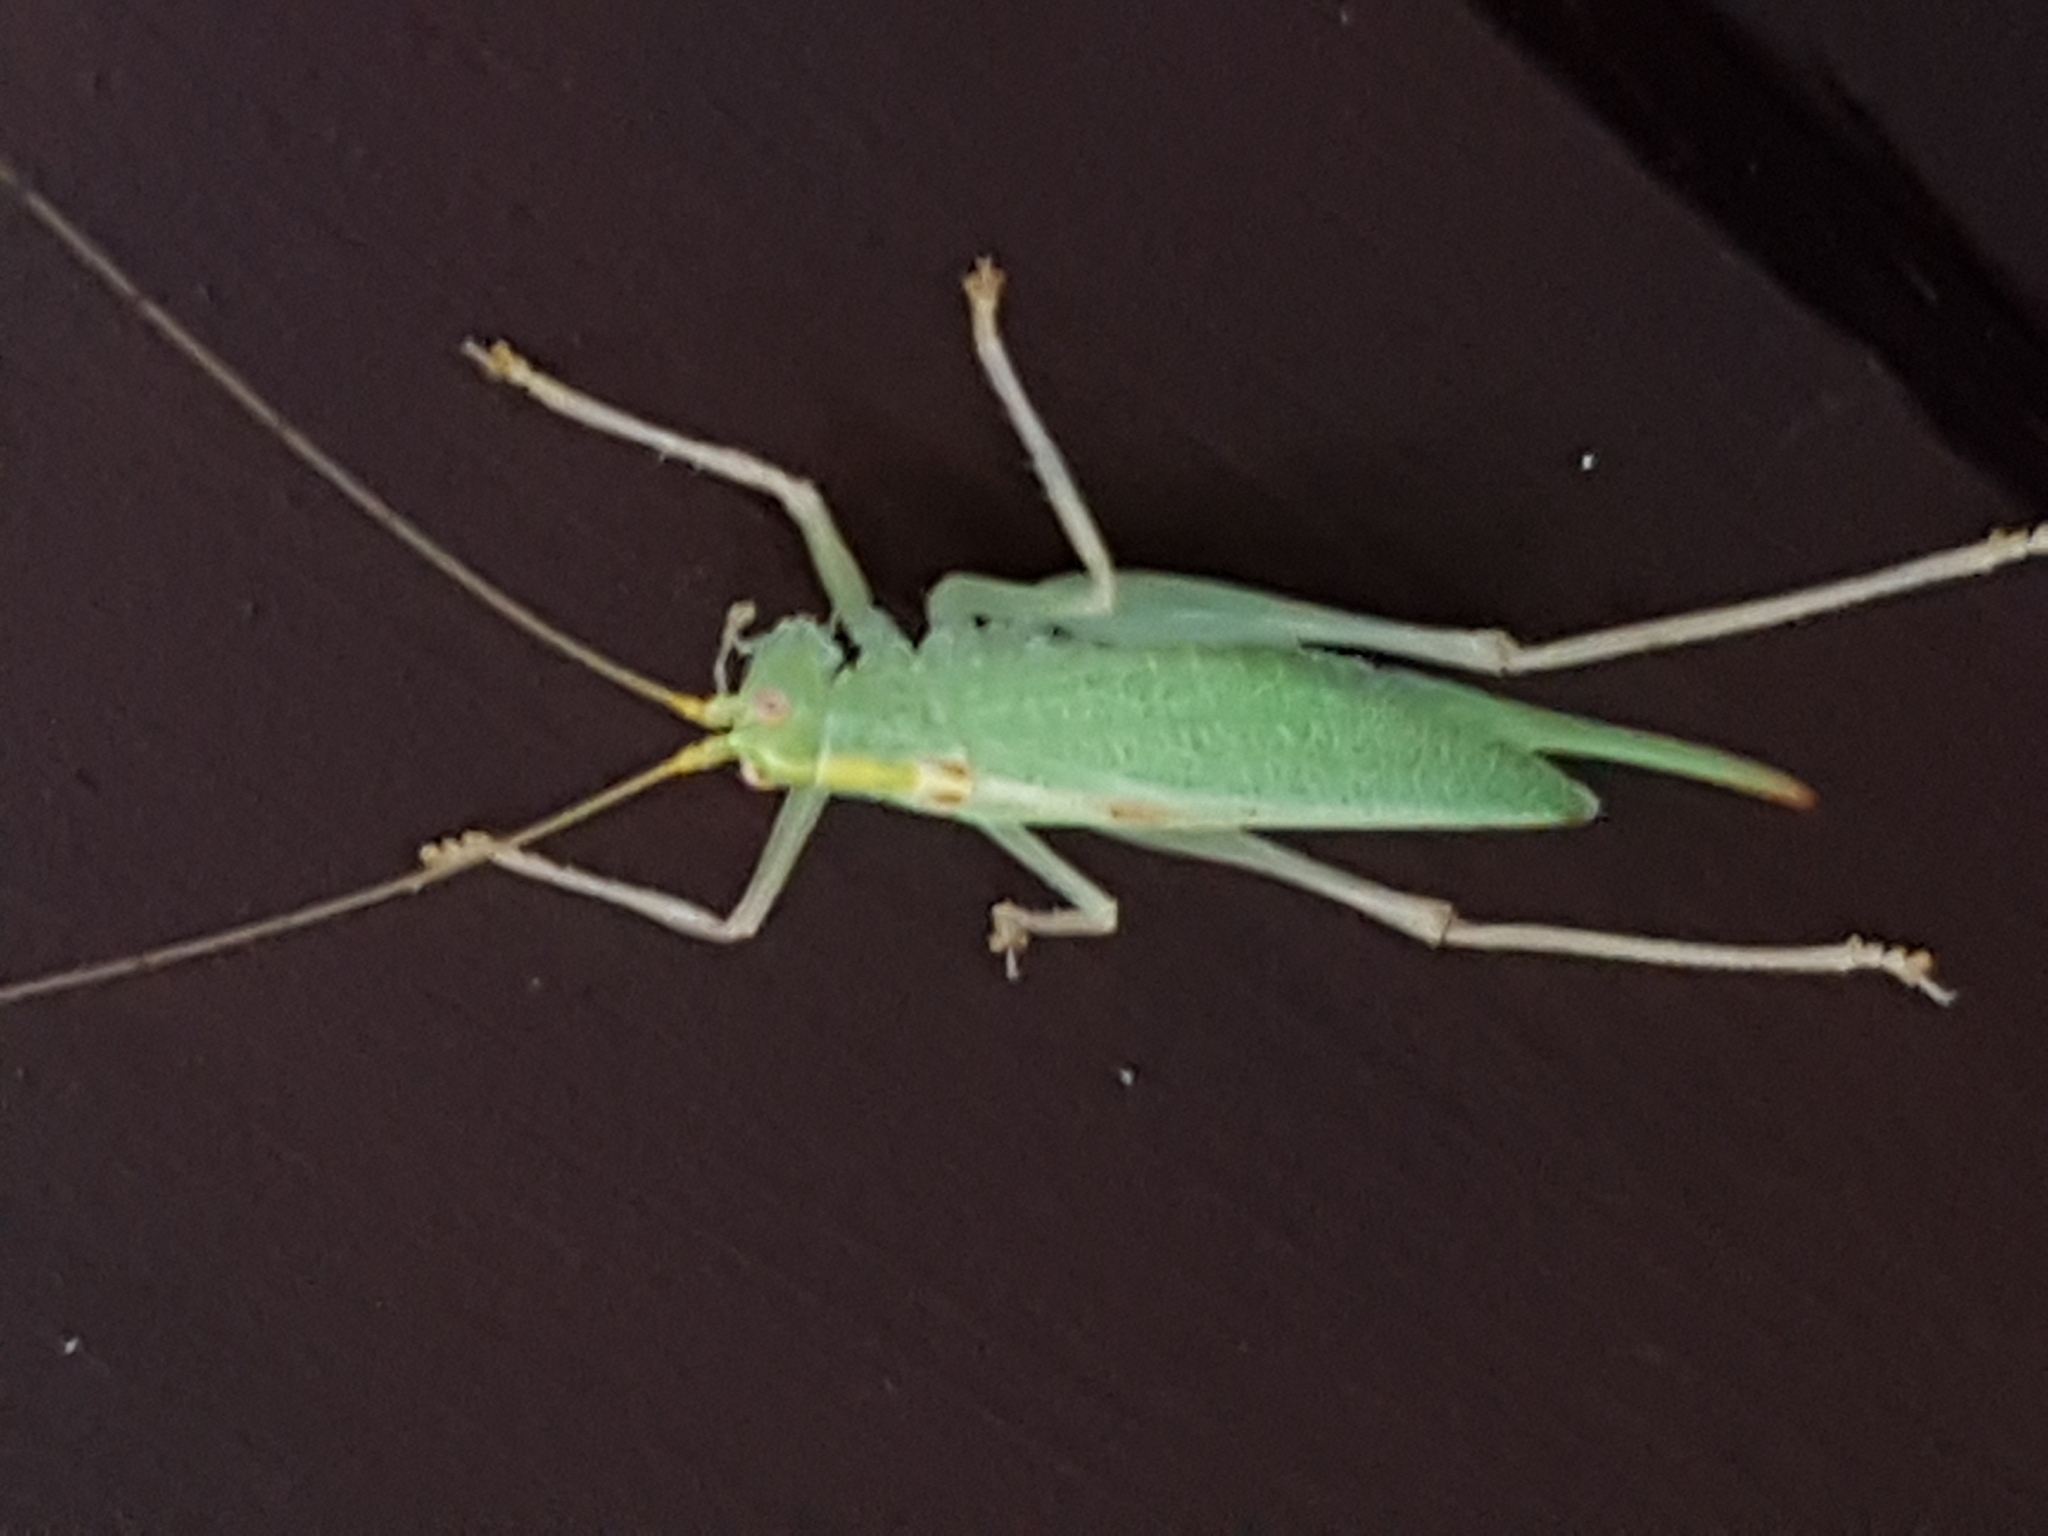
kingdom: Animalia
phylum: Arthropoda
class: Insecta
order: Orthoptera
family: Tettigoniidae
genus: Meconema
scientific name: Meconema thalassinum
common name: Oak bush-cricket
